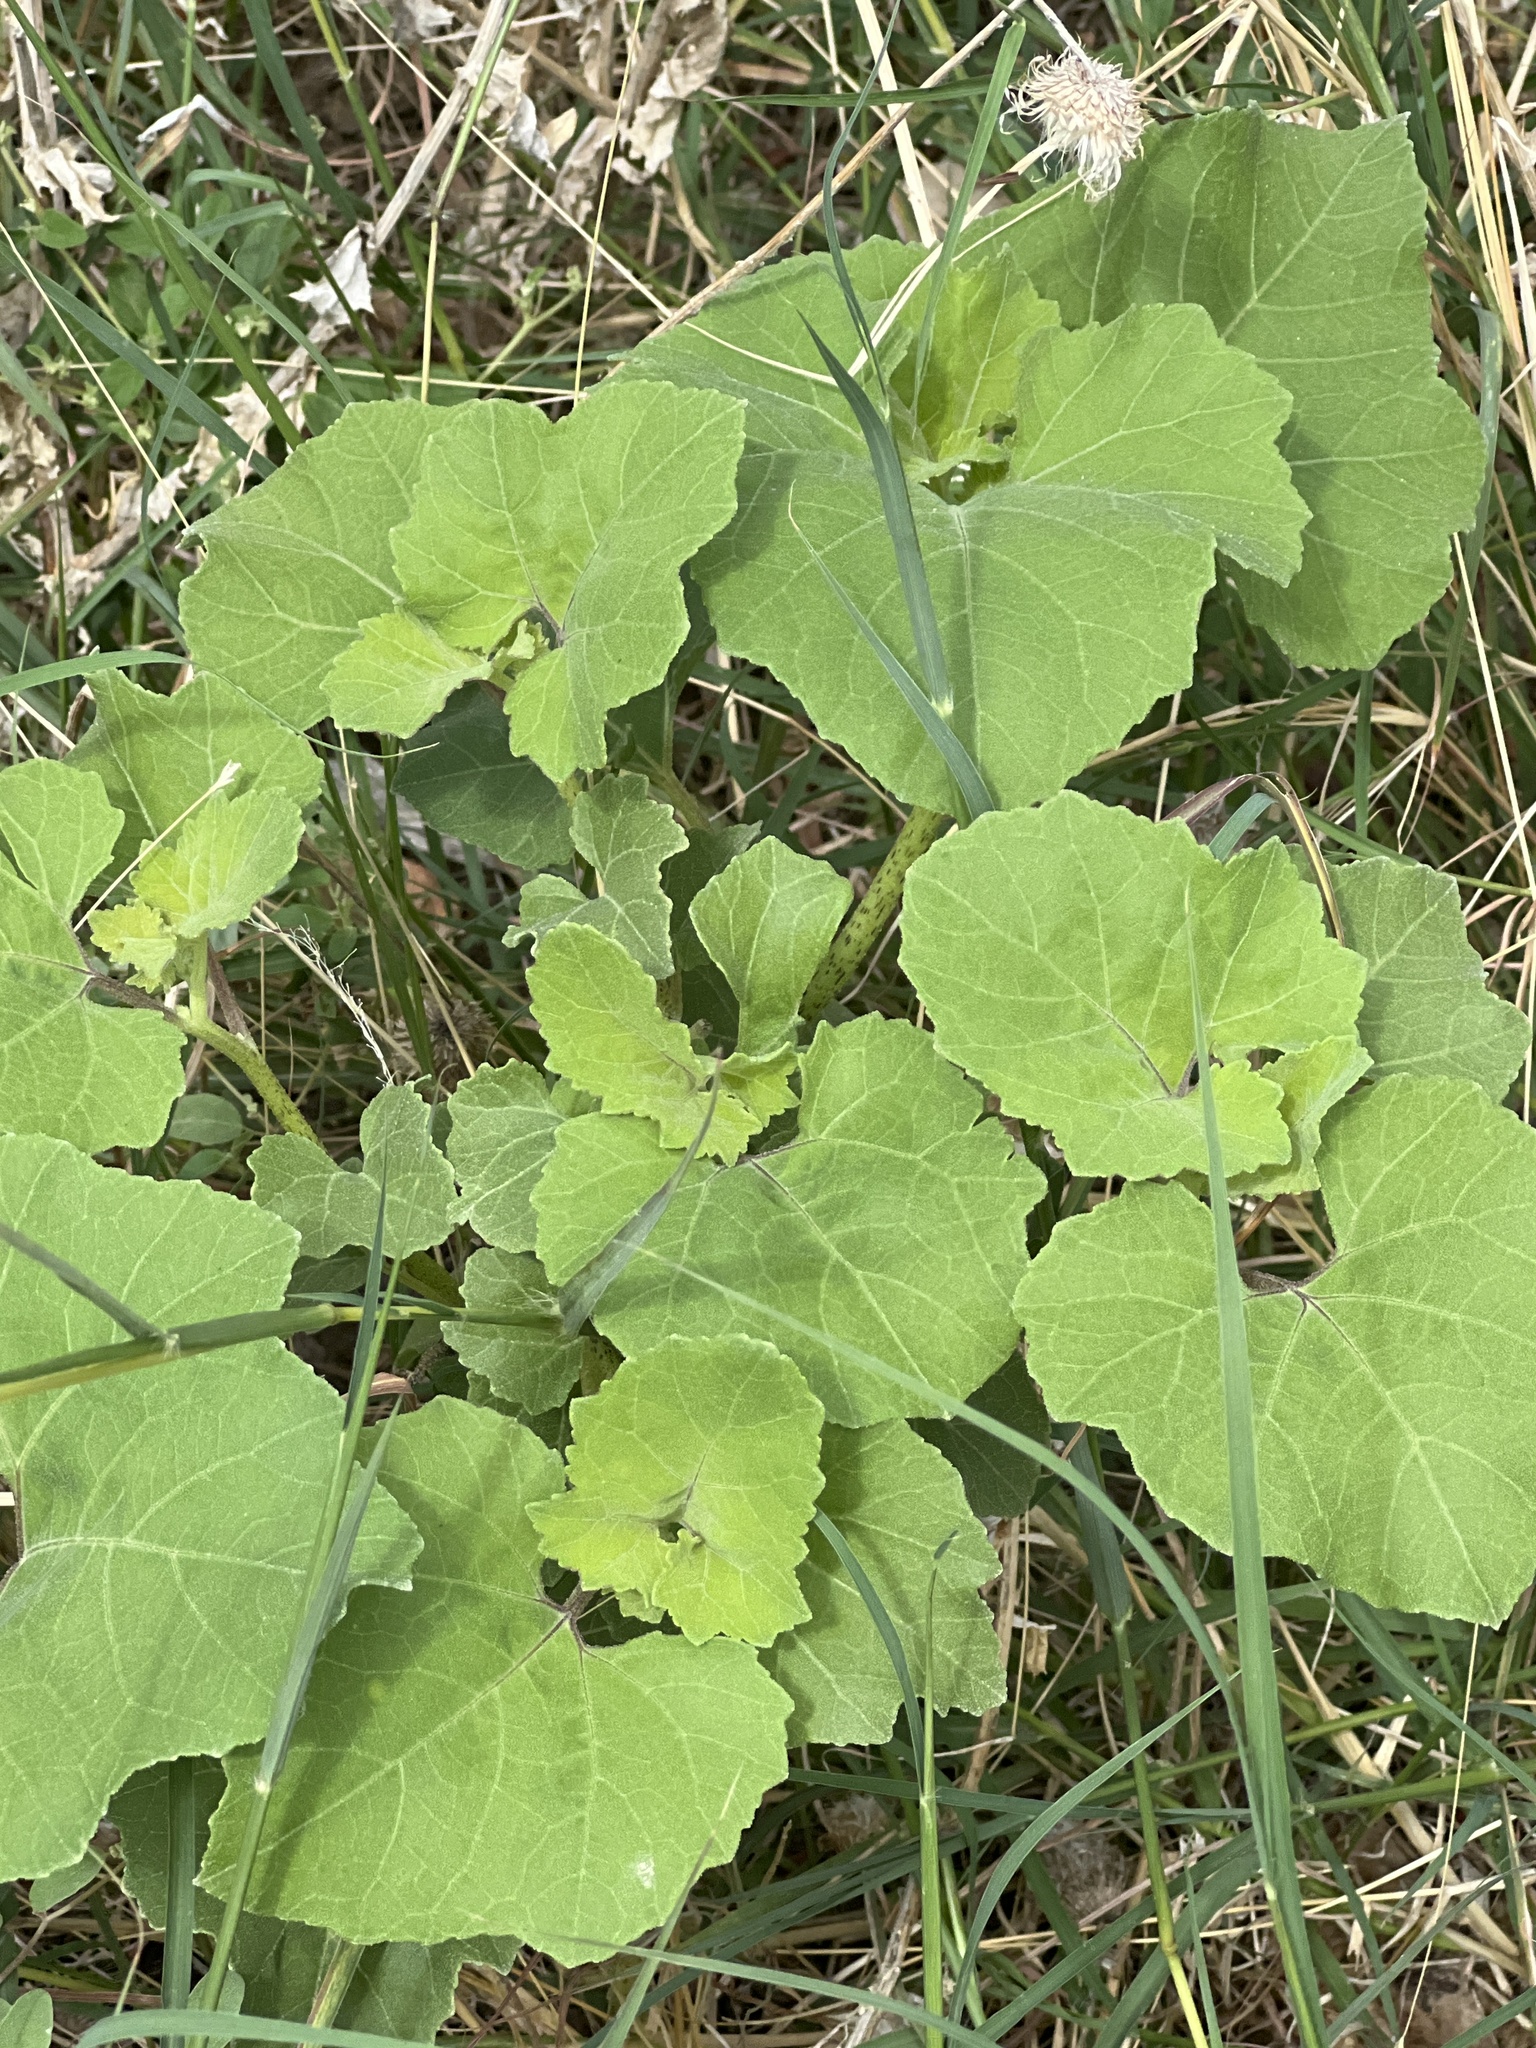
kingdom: Plantae
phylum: Tracheophyta
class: Magnoliopsida
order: Asterales
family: Asteraceae
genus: Xanthium
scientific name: Xanthium strumarium
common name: Rough cocklebur
